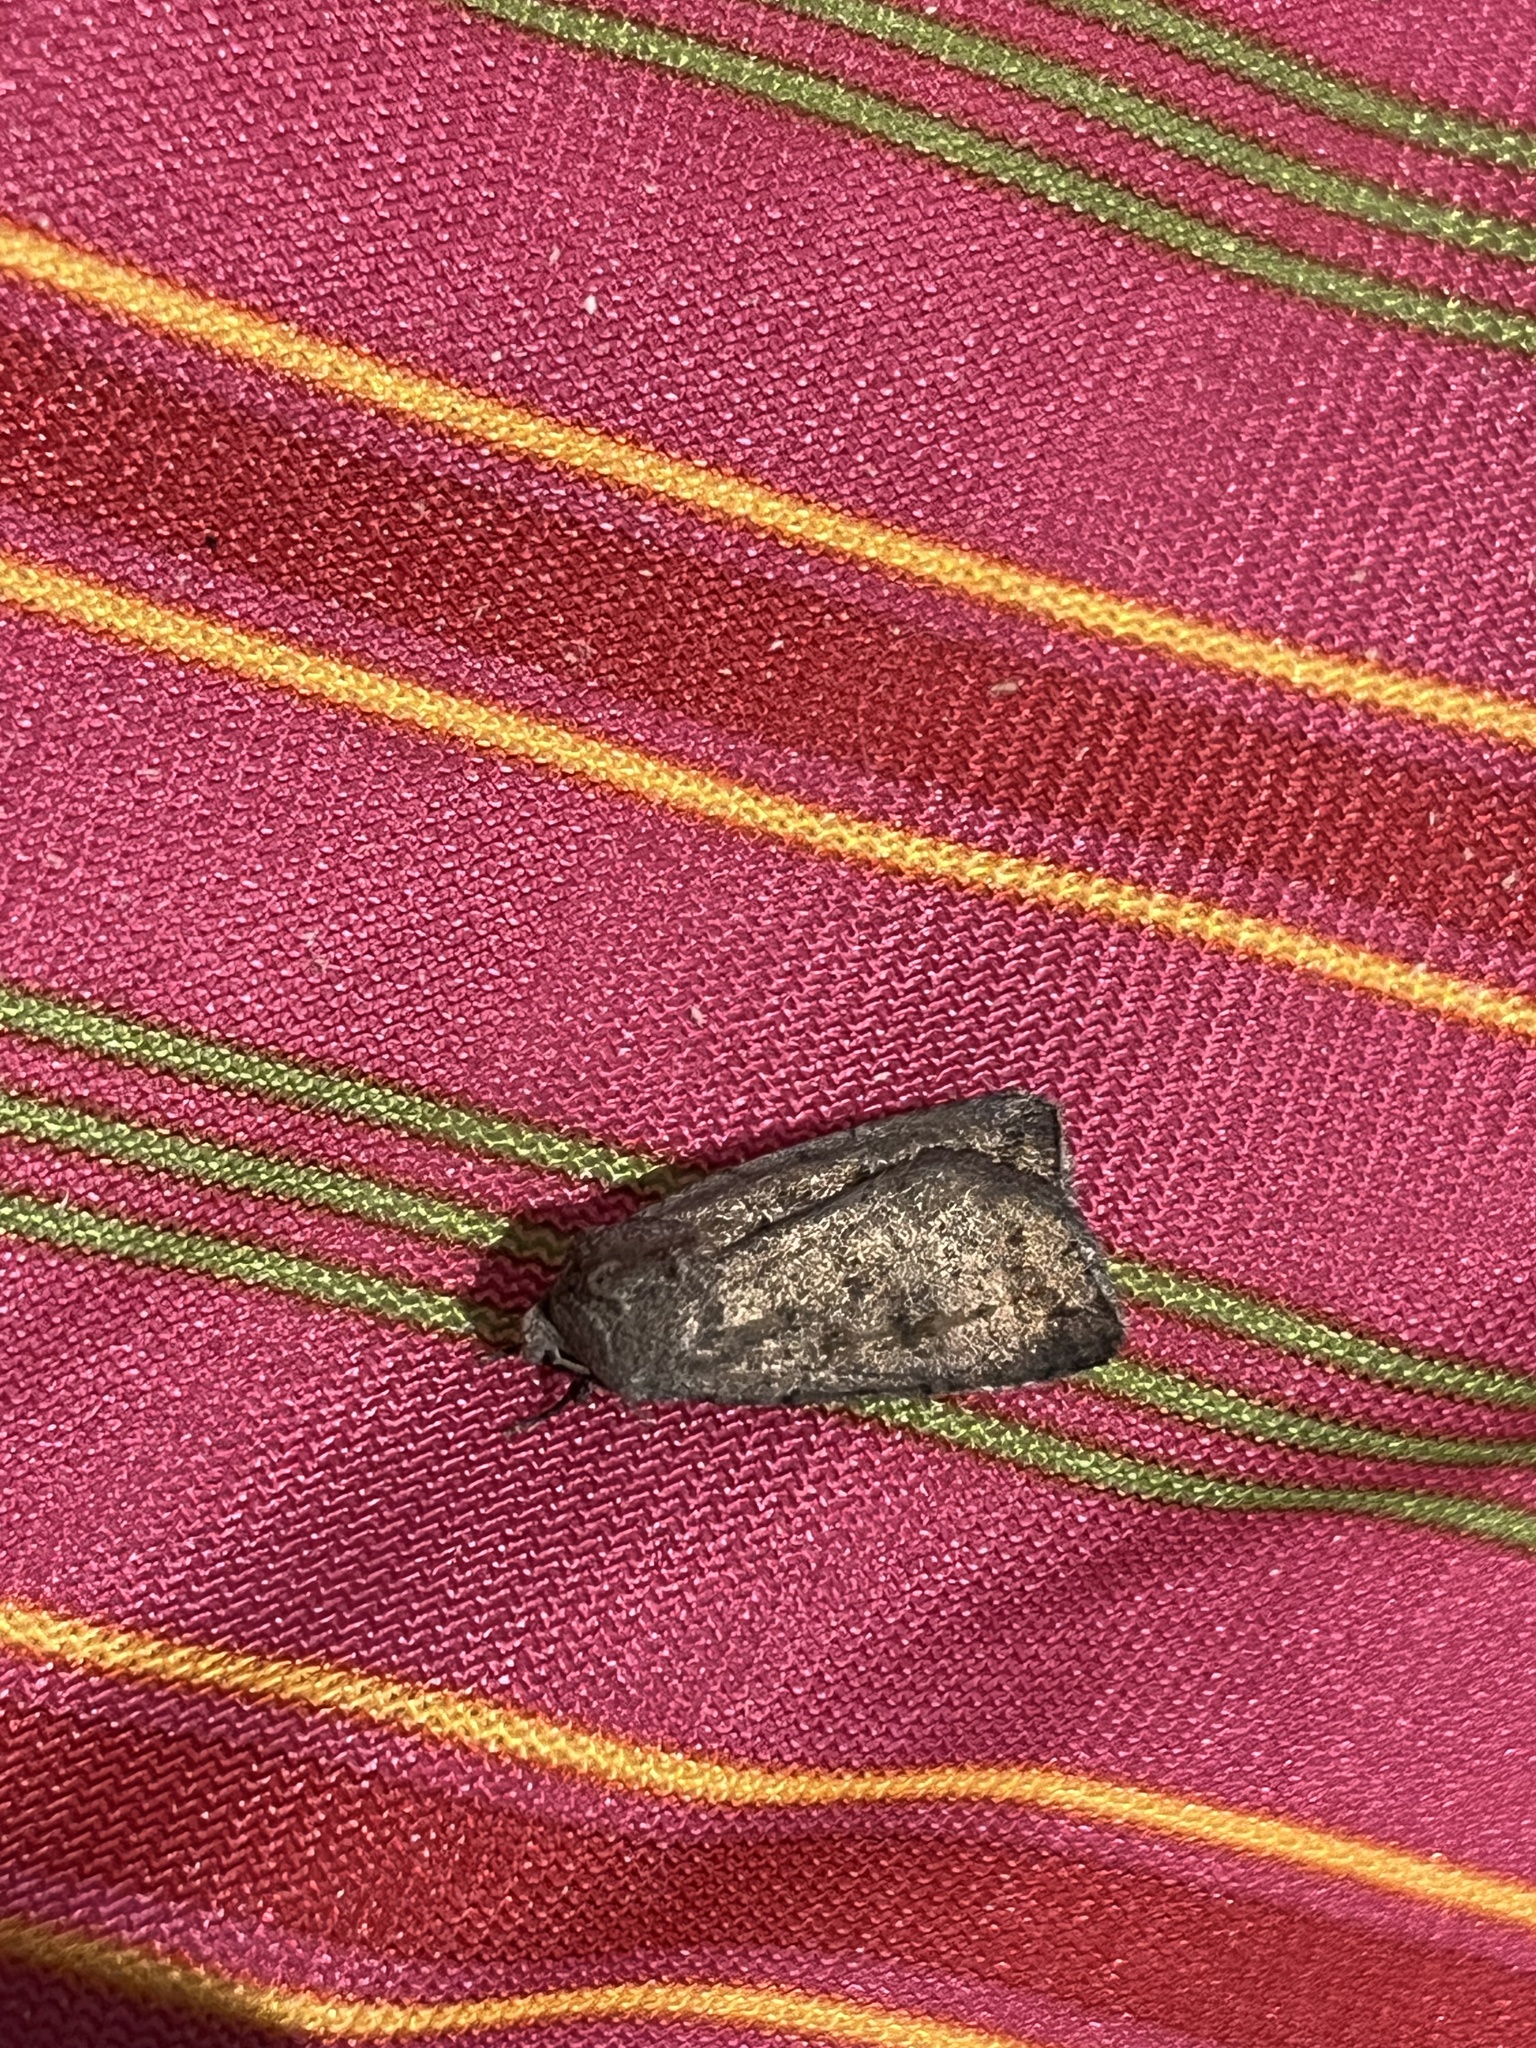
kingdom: Animalia
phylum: Arthropoda
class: Insecta
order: Lepidoptera
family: Noctuidae
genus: Agrotis
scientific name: Agrotis segetum
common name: Turnip moth
